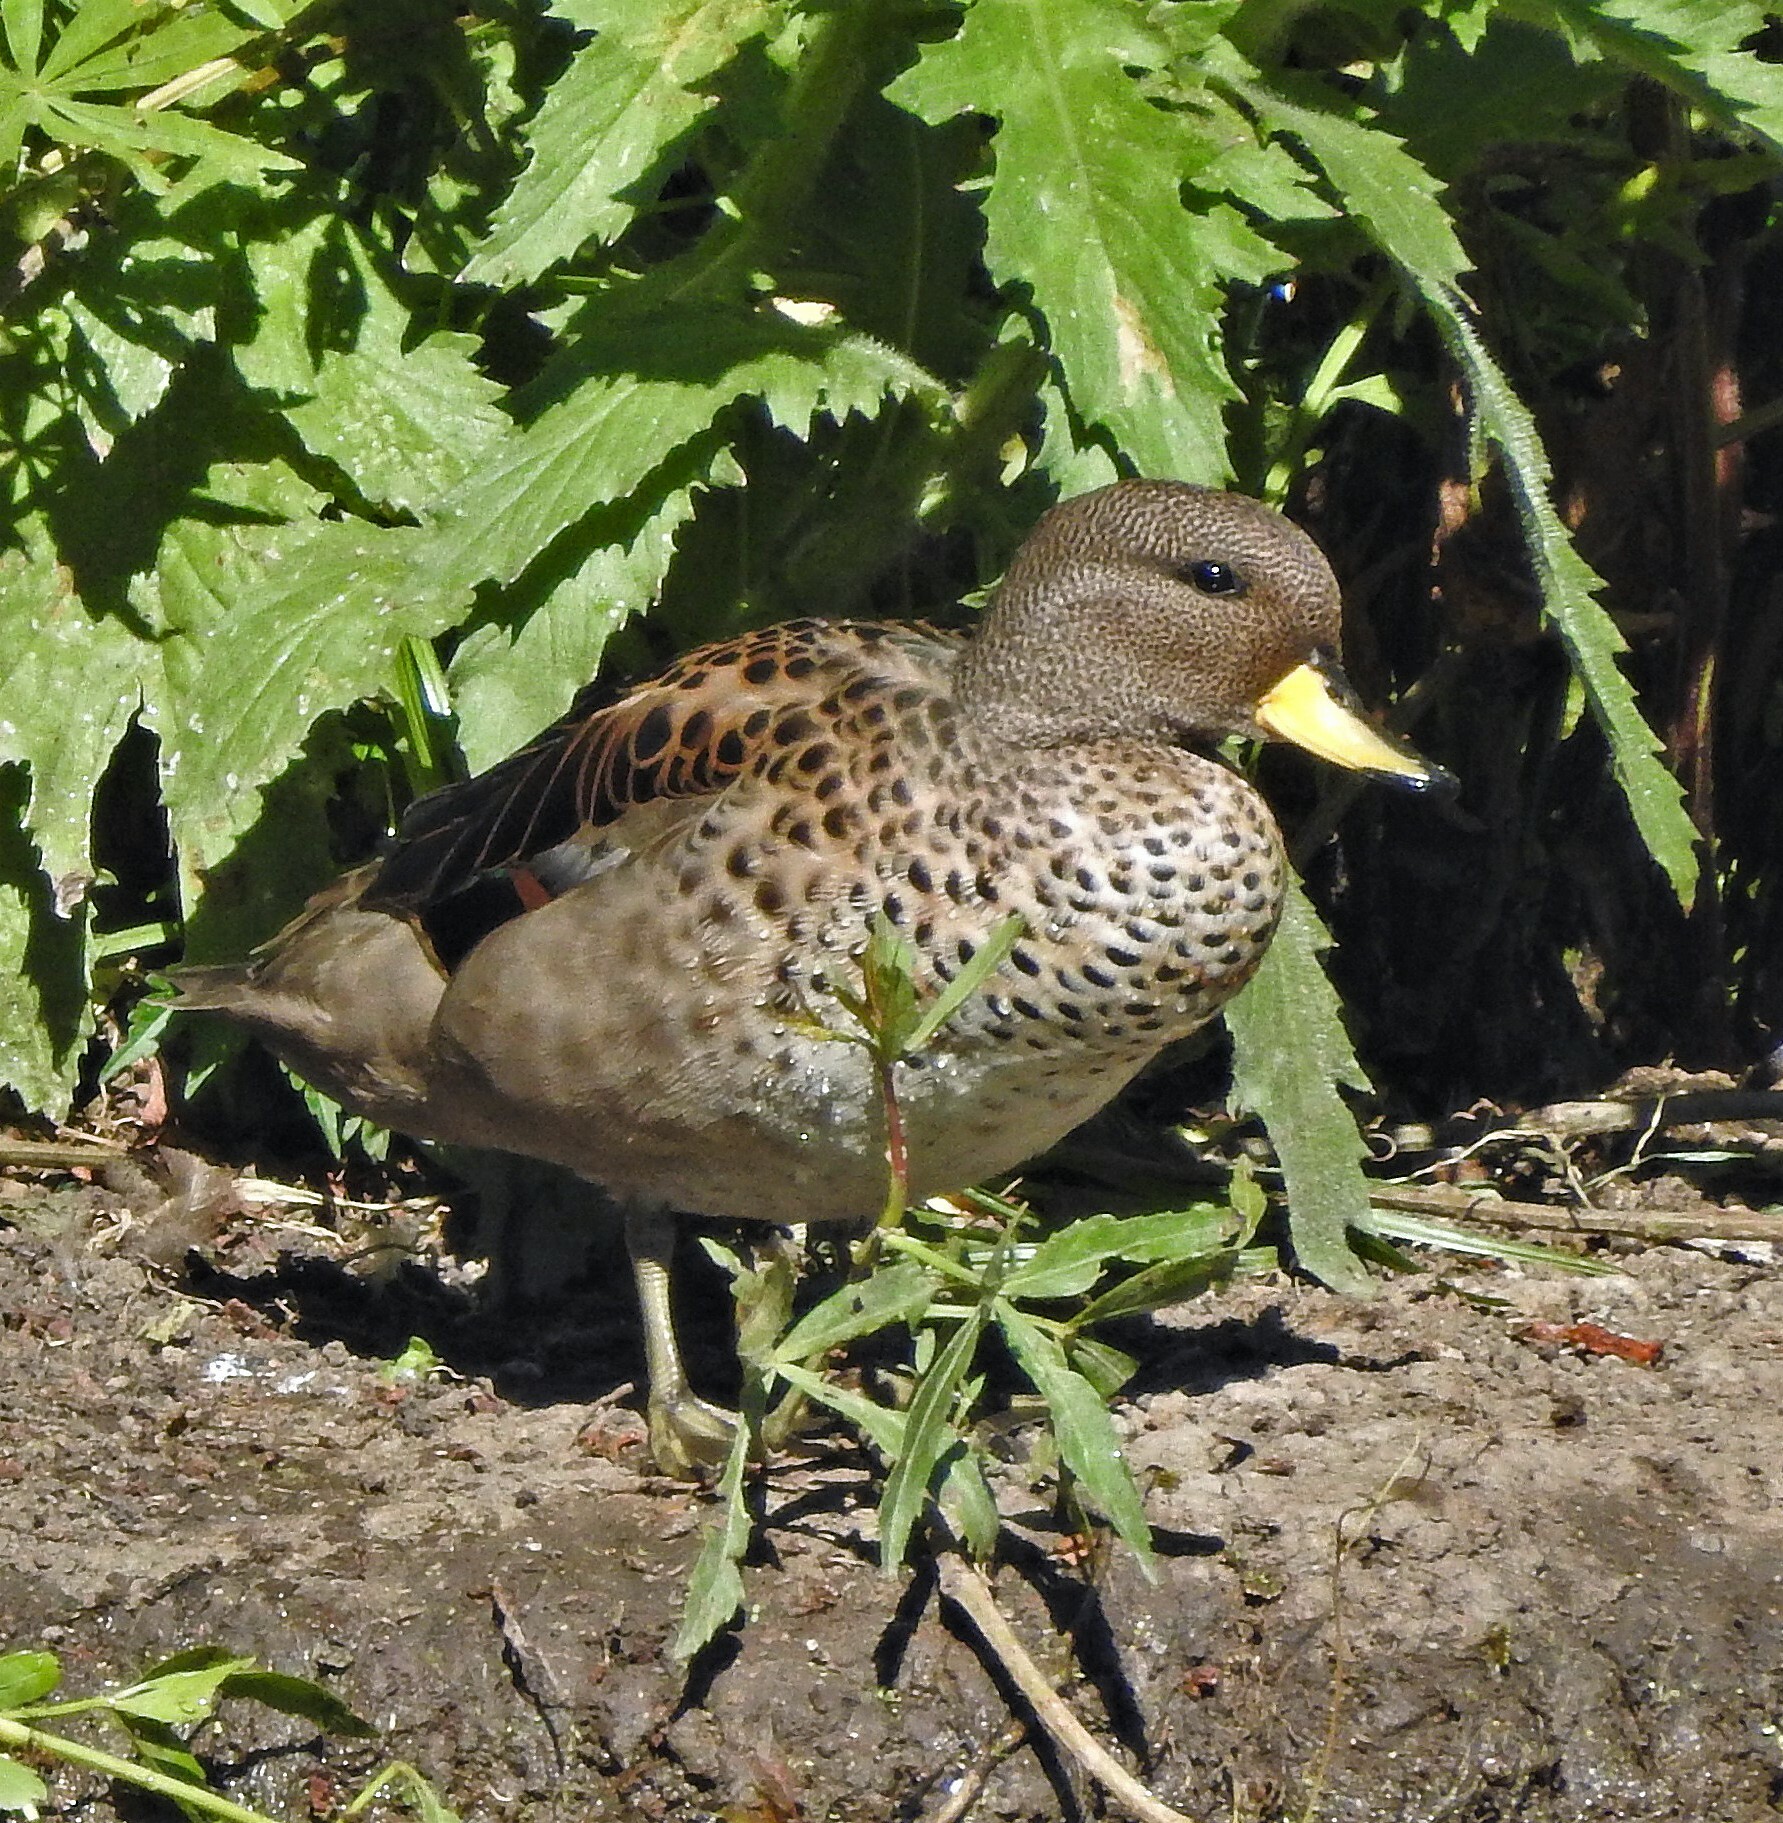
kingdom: Animalia
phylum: Chordata
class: Aves
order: Anseriformes
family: Anatidae
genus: Anas
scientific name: Anas flavirostris
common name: Yellow-billed teal
